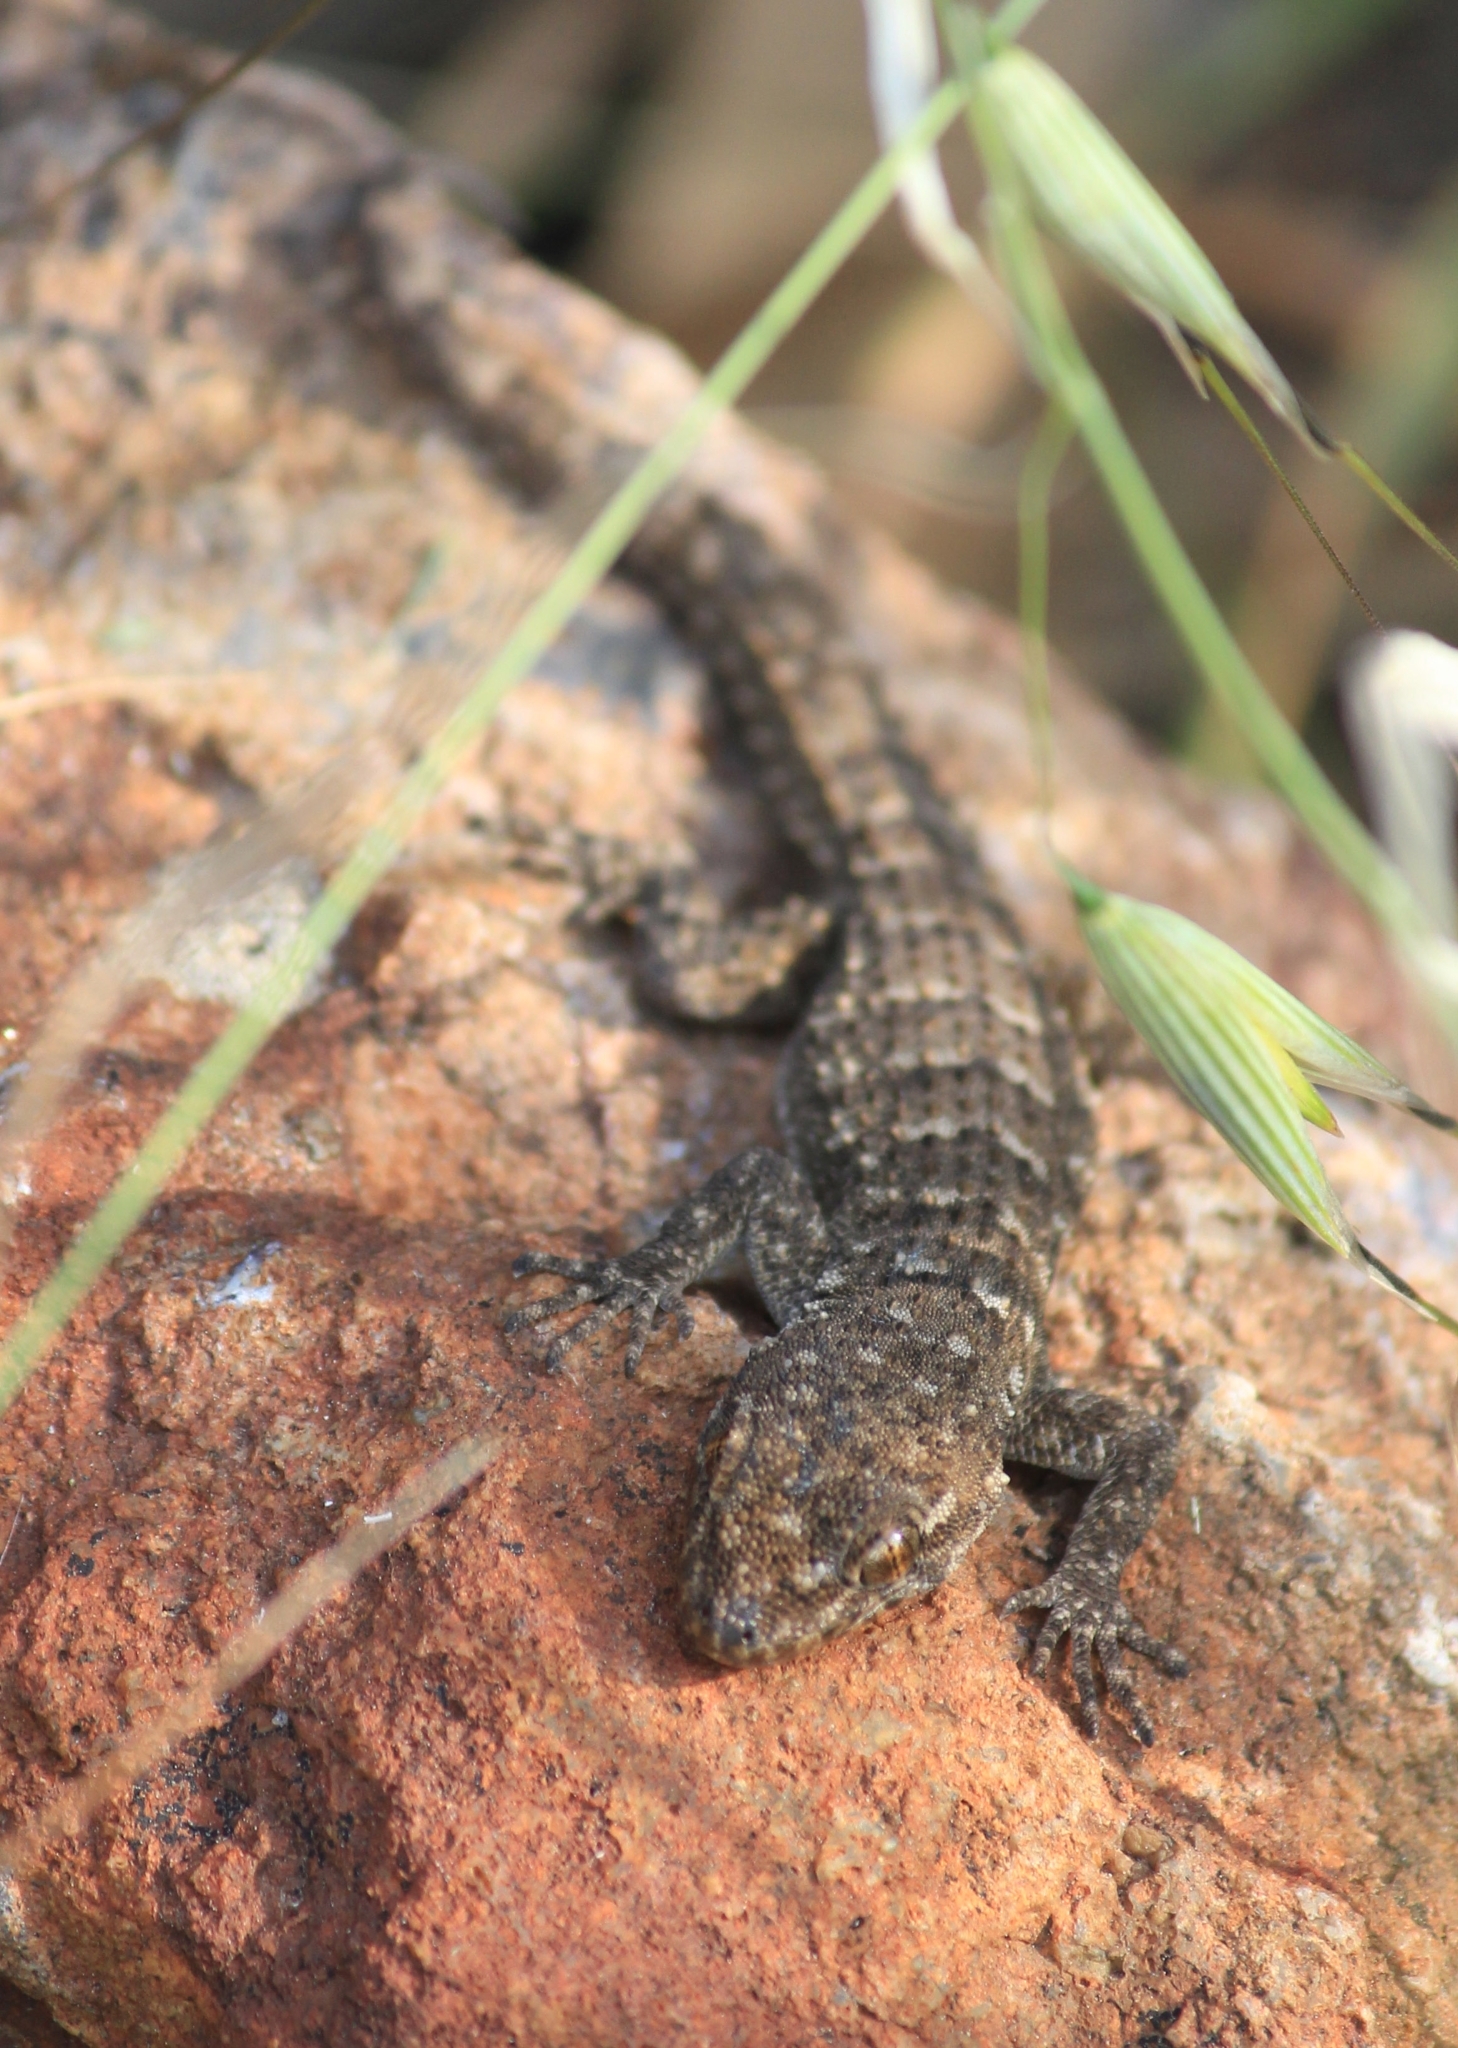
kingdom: Animalia
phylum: Chordata
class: Squamata
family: Gekkonidae
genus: Mediodactylus
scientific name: Mediodactylus kotschyi
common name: Kotschy's gecko
